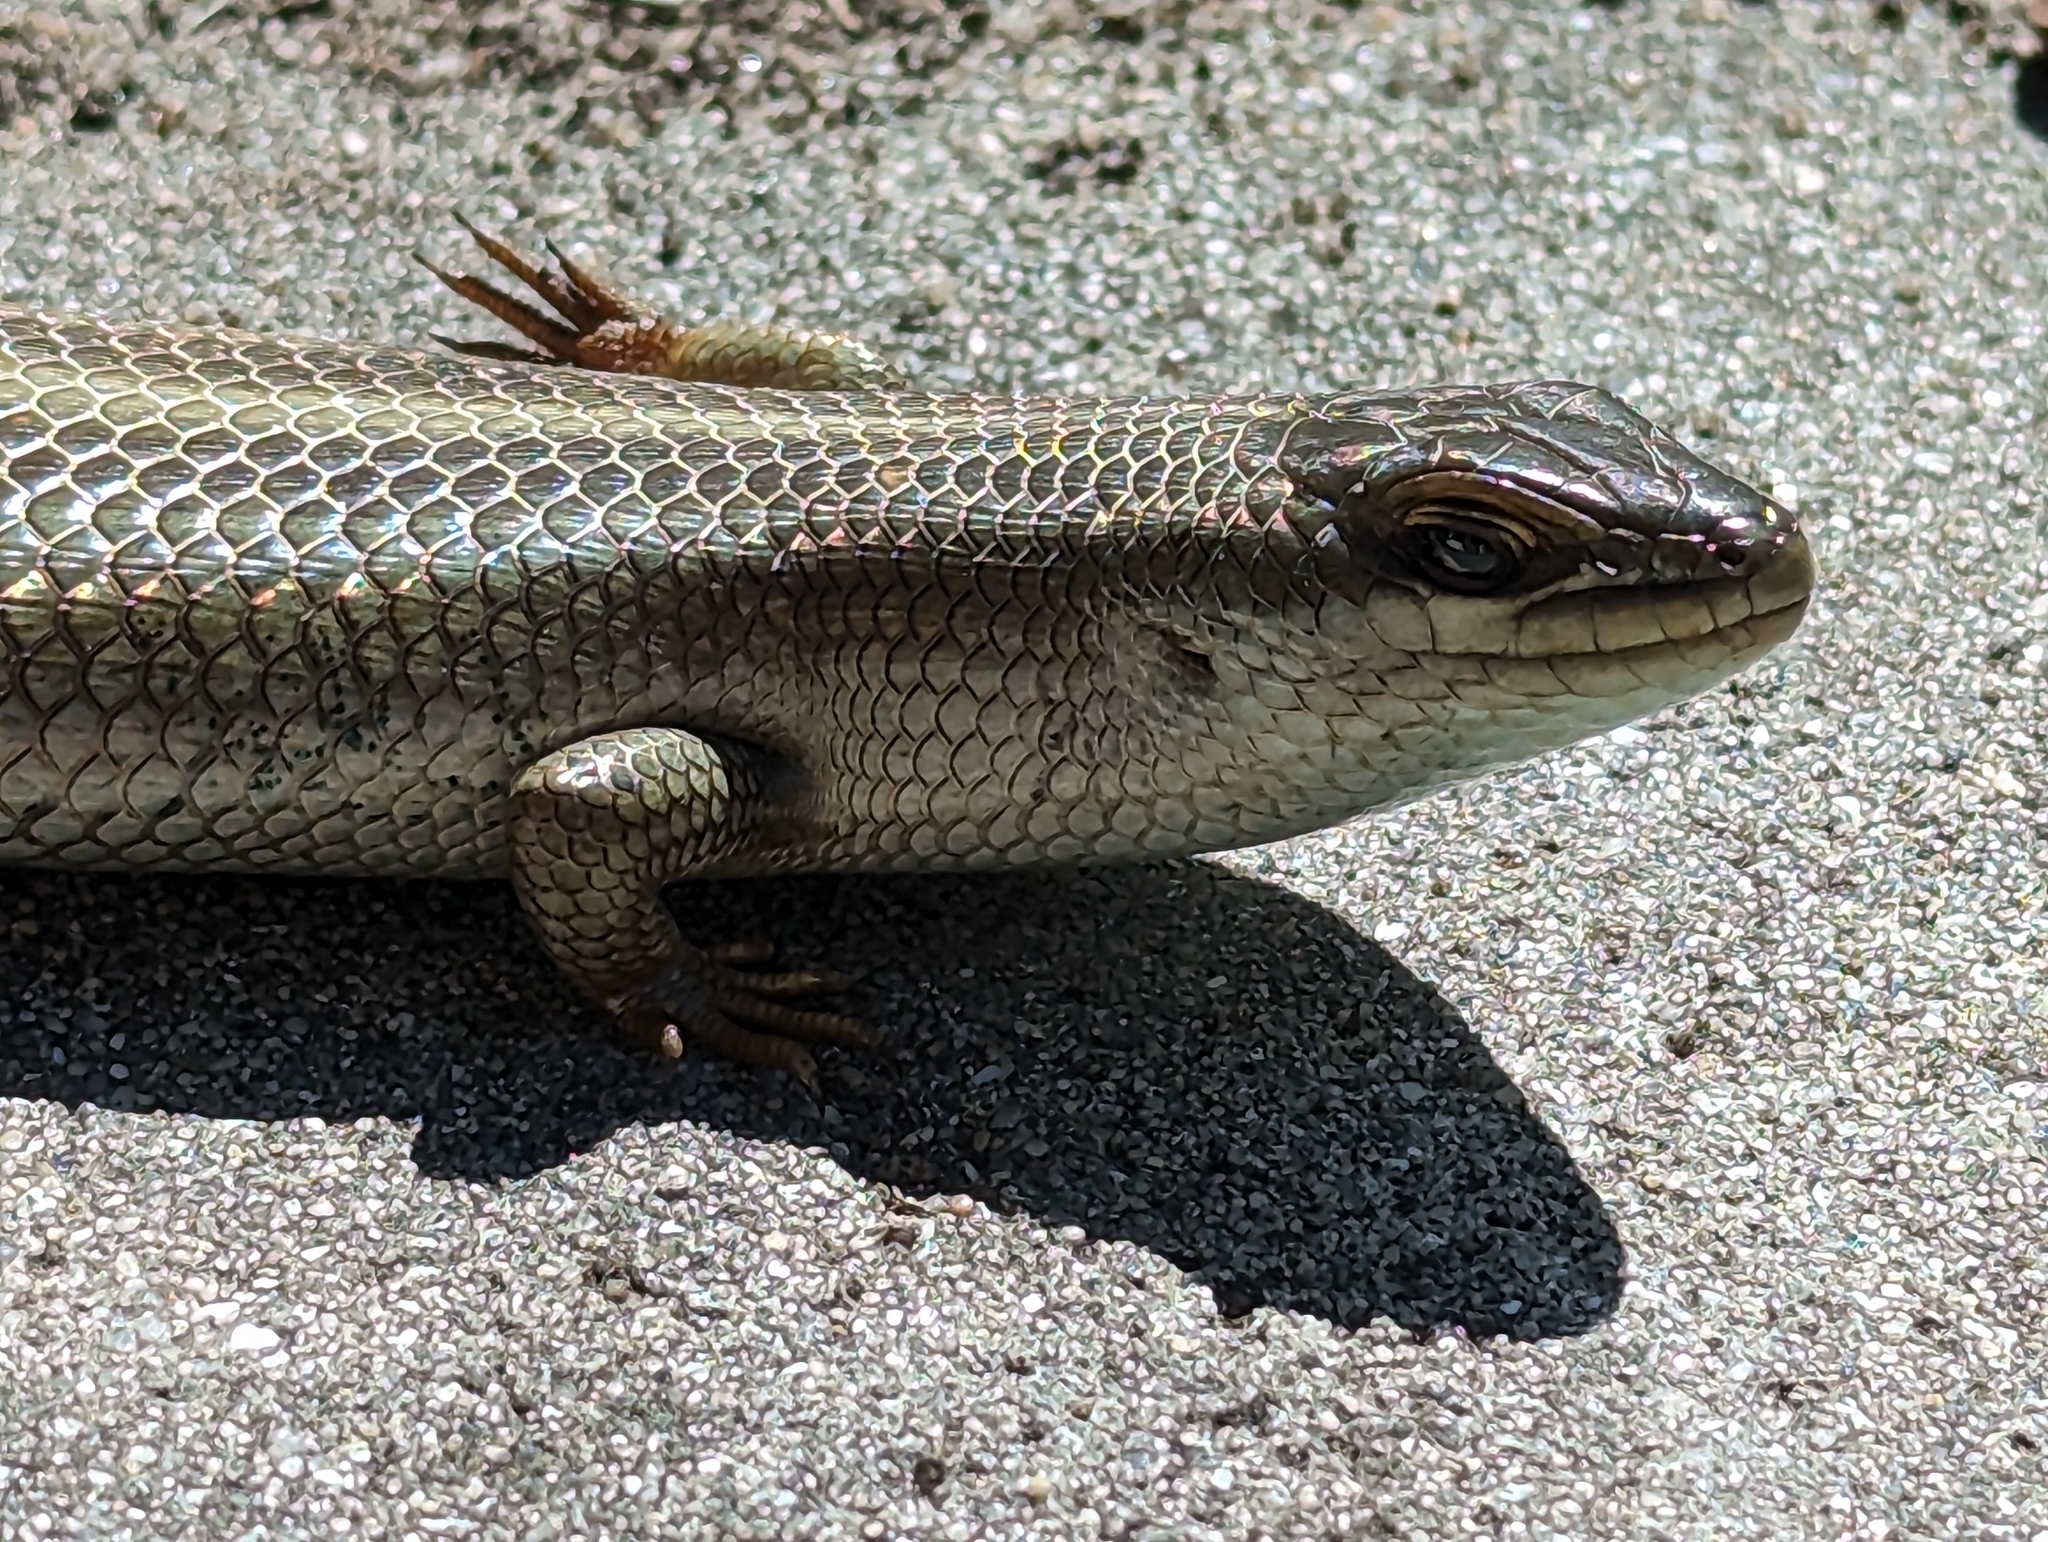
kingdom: Animalia
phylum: Chordata
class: Squamata
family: Scincidae
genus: Trachylepis
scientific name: Trachylepis capensis
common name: Cape skink
